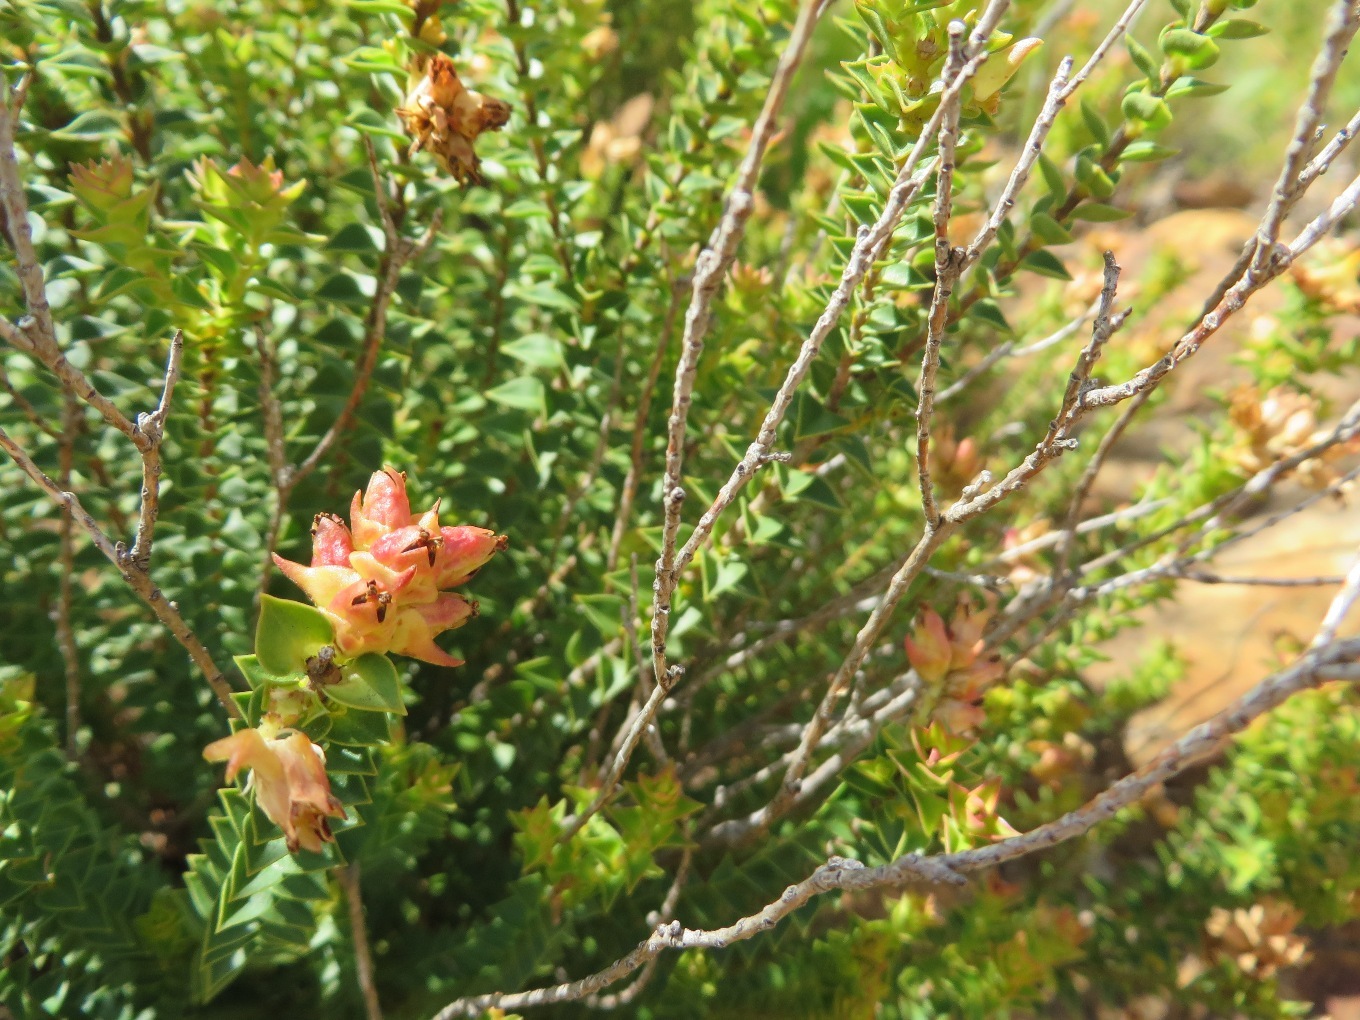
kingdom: Plantae
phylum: Tracheophyta
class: Magnoliopsida
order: Myrtales
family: Penaeaceae
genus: Penaea
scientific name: Penaea mucronata
